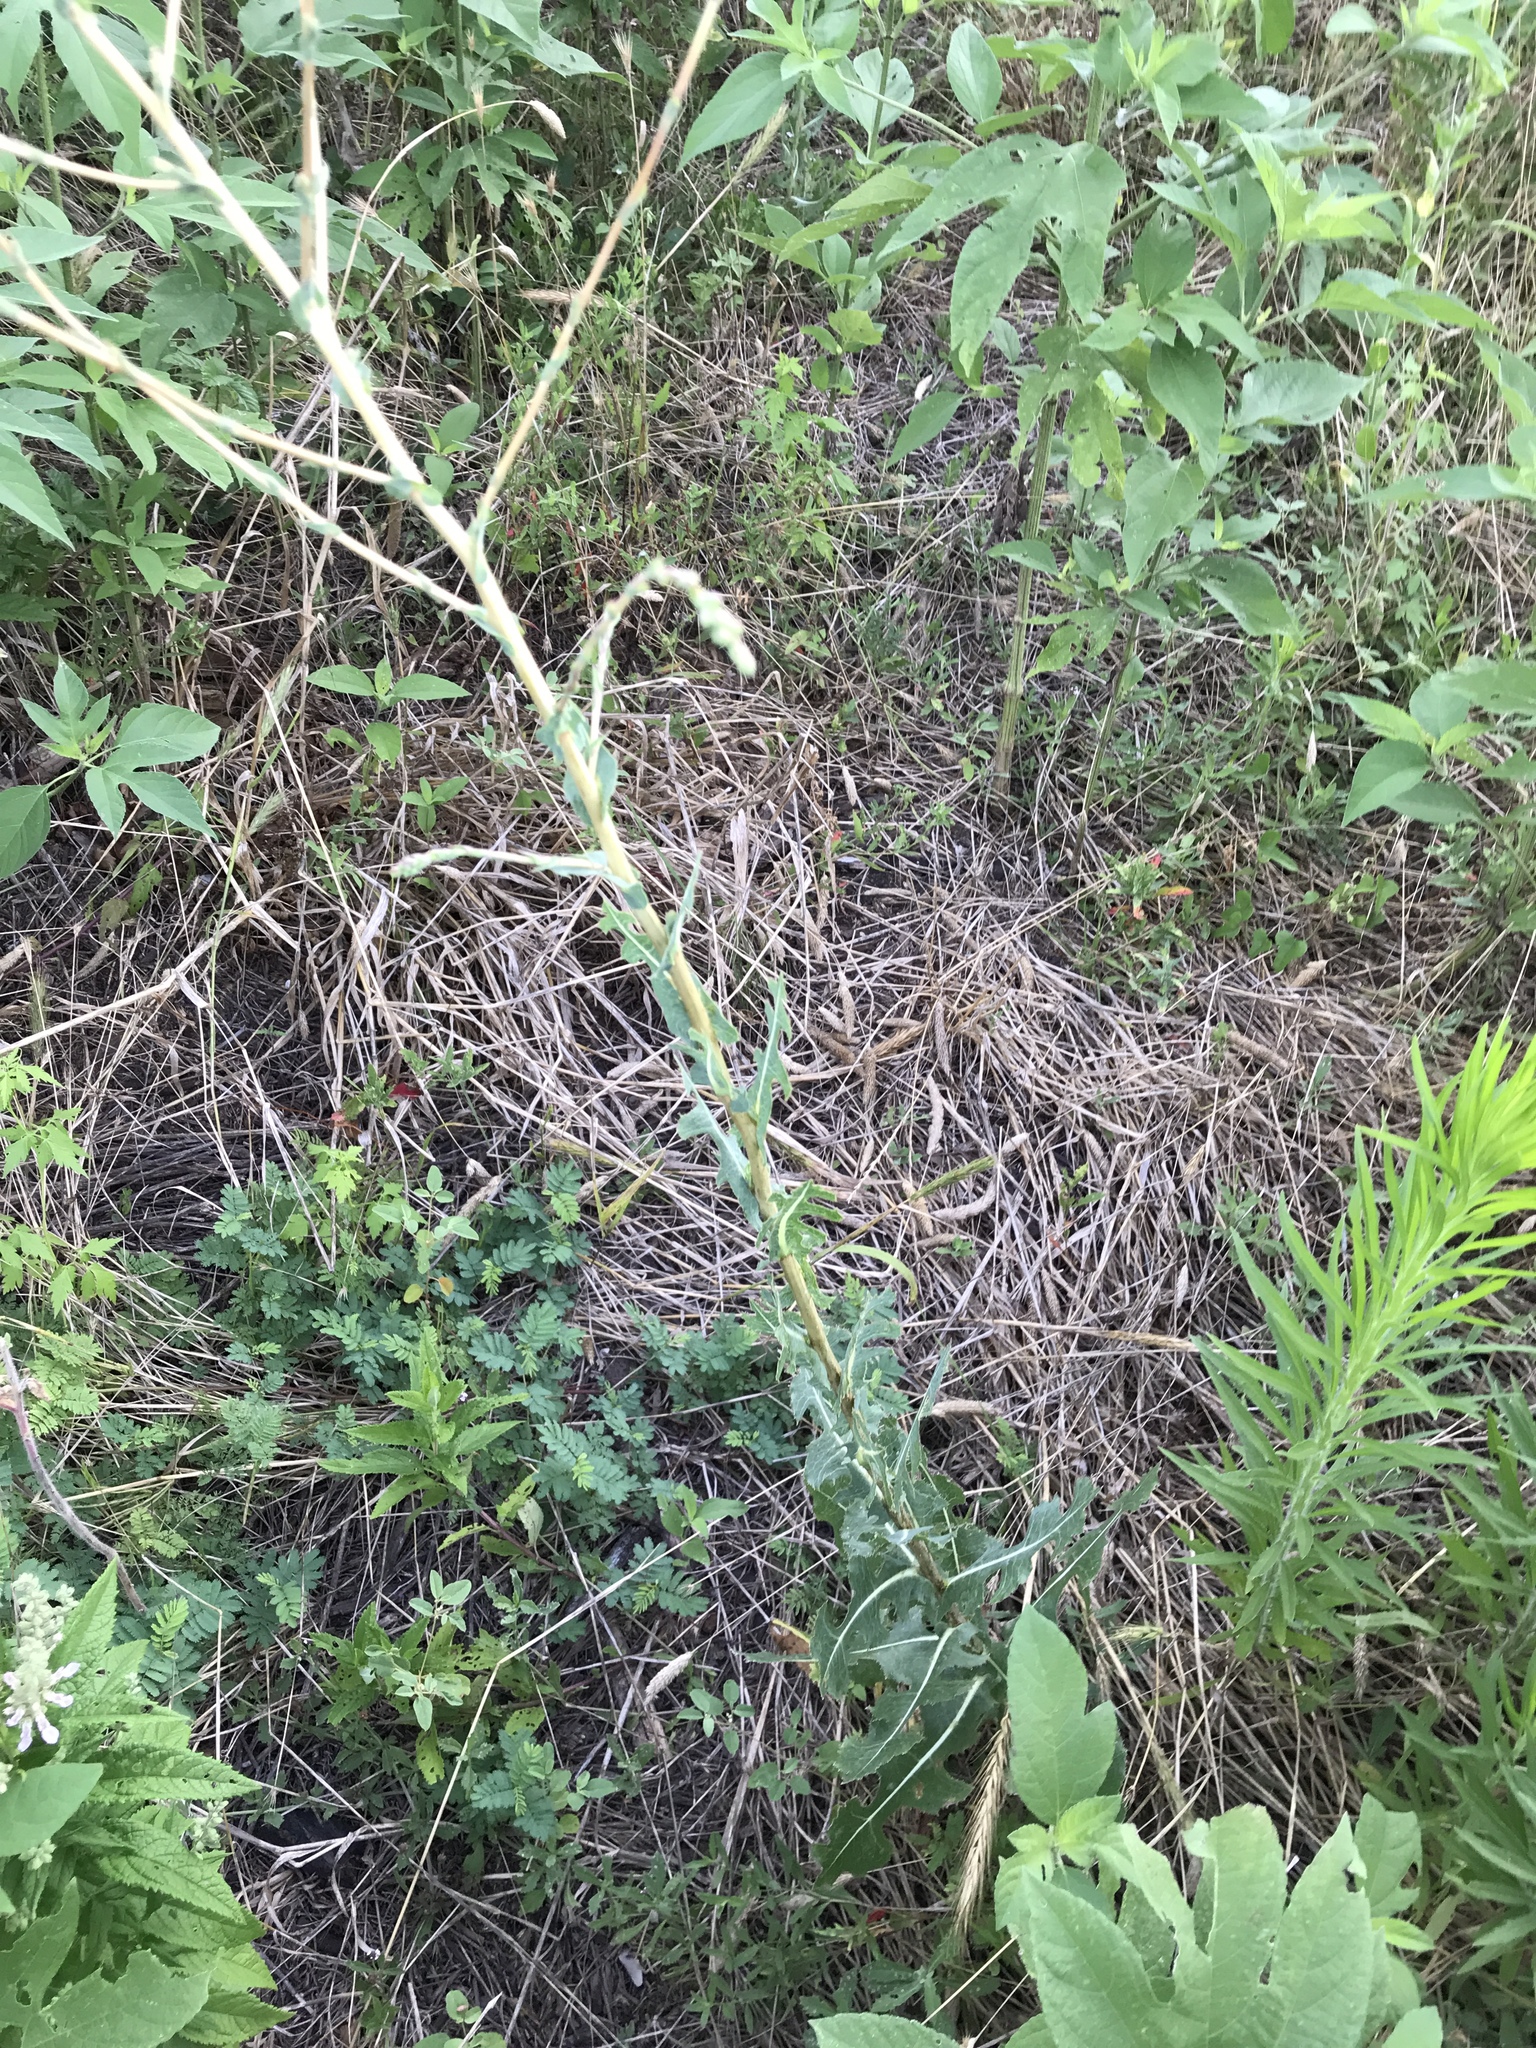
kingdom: Plantae
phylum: Tracheophyta
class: Magnoliopsida
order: Asterales
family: Asteraceae
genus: Lactuca
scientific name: Lactuca serriola
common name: Prickly lettuce
